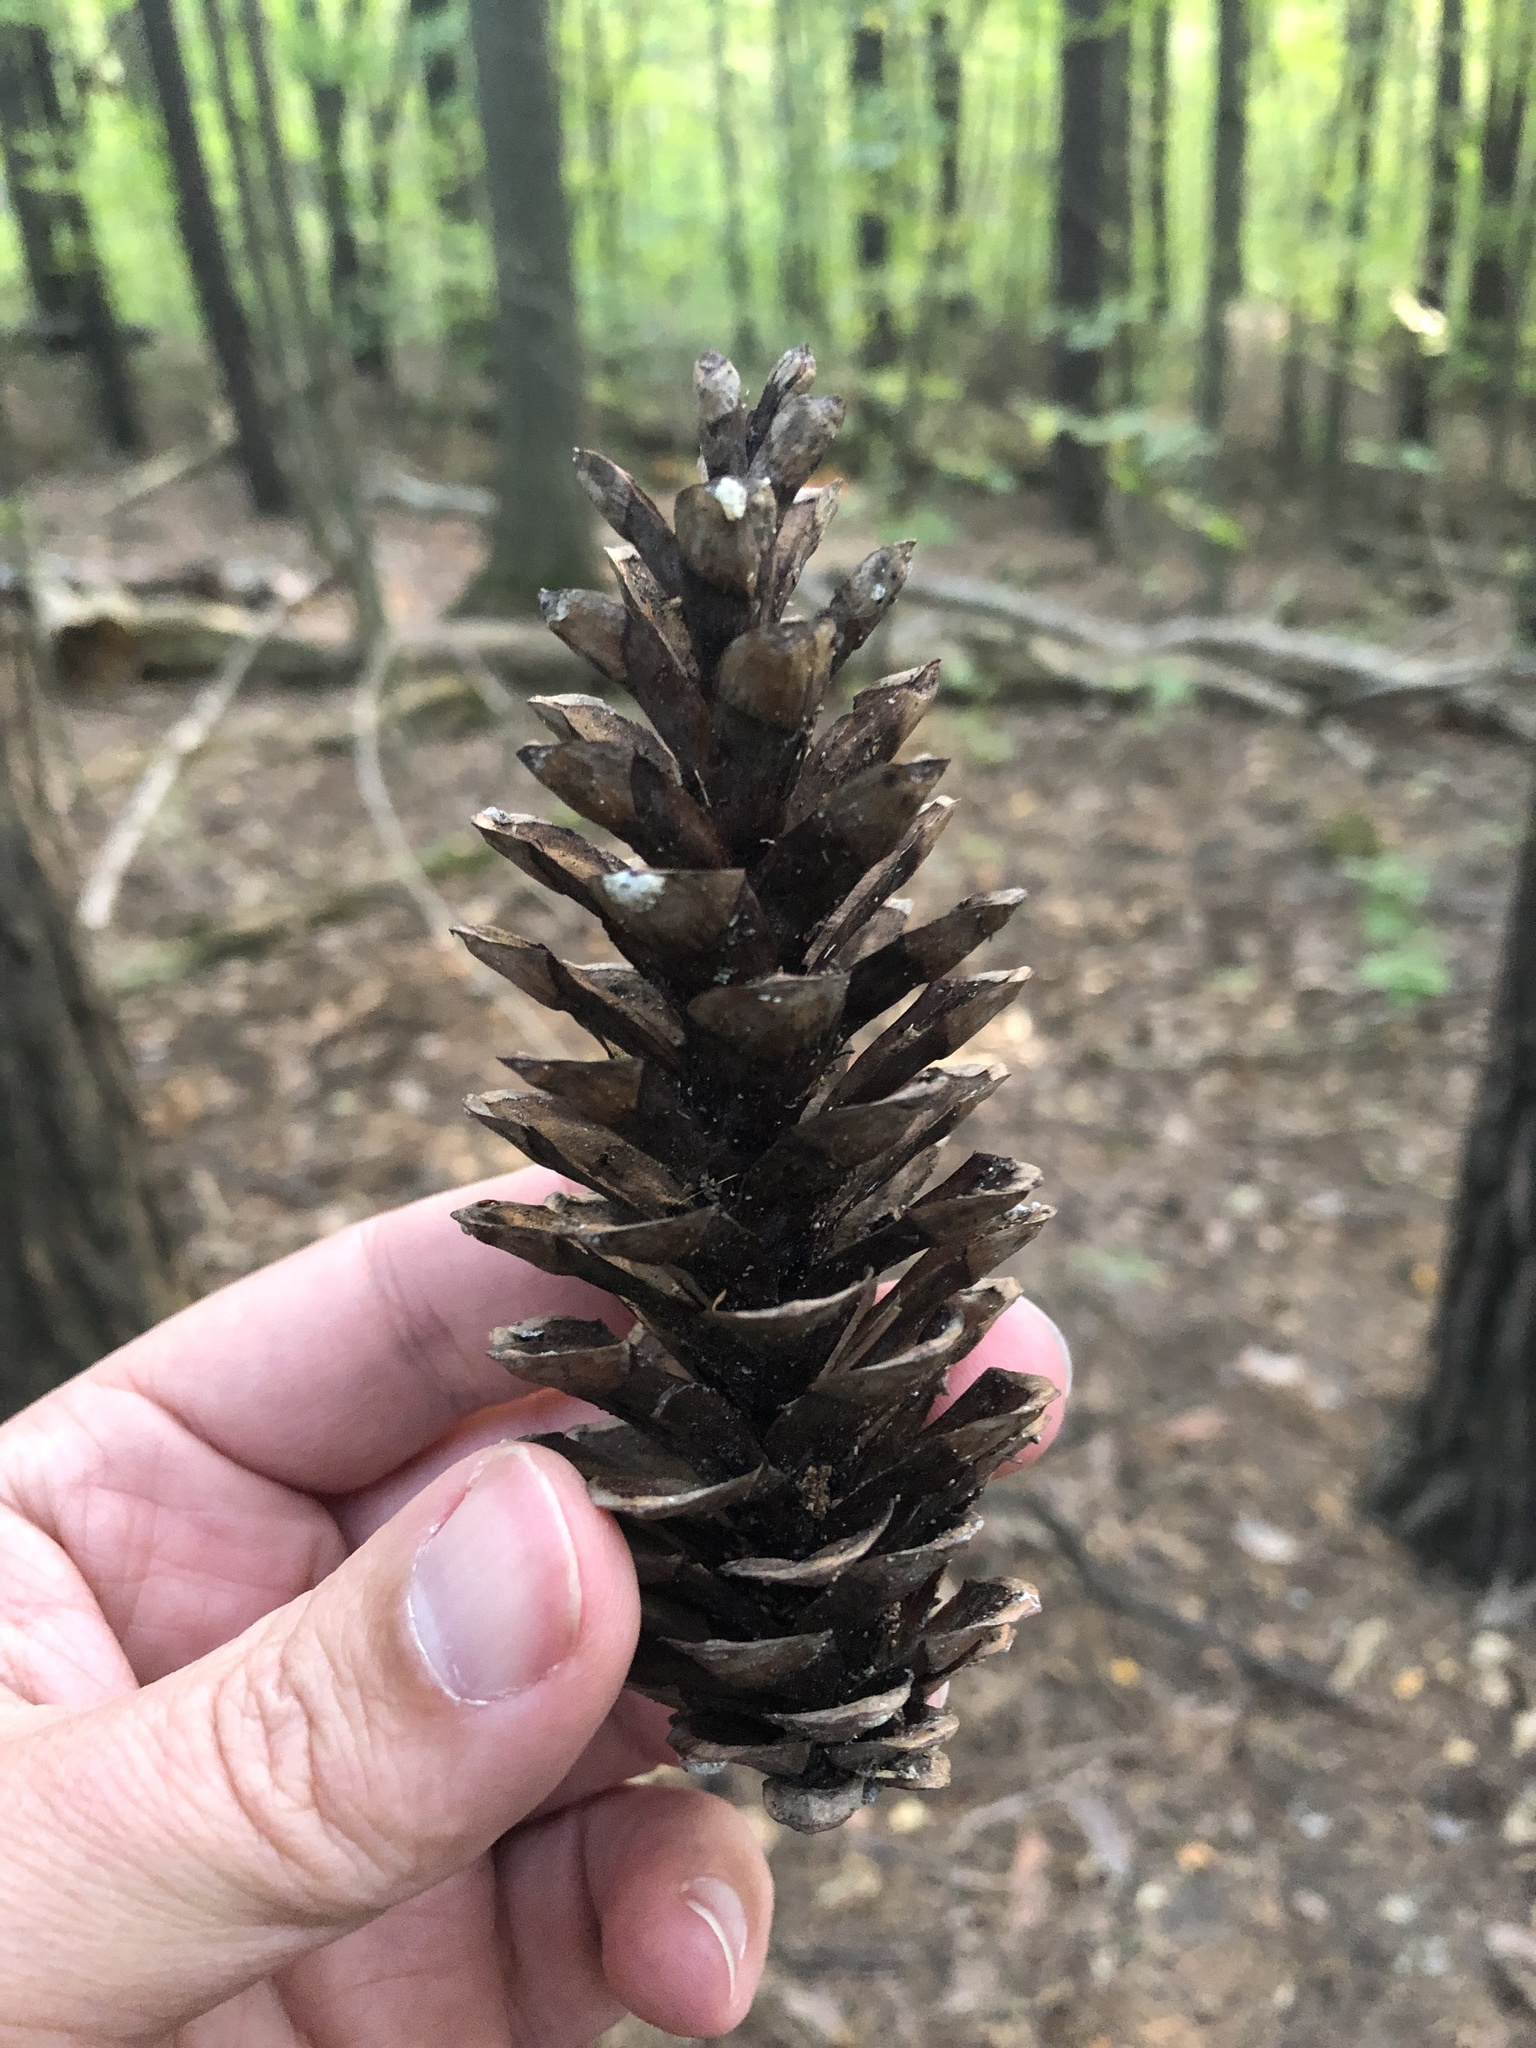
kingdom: Plantae
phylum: Tracheophyta
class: Pinopsida
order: Pinales
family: Pinaceae
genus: Pinus
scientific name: Pinus strobus
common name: Weymouth pine
